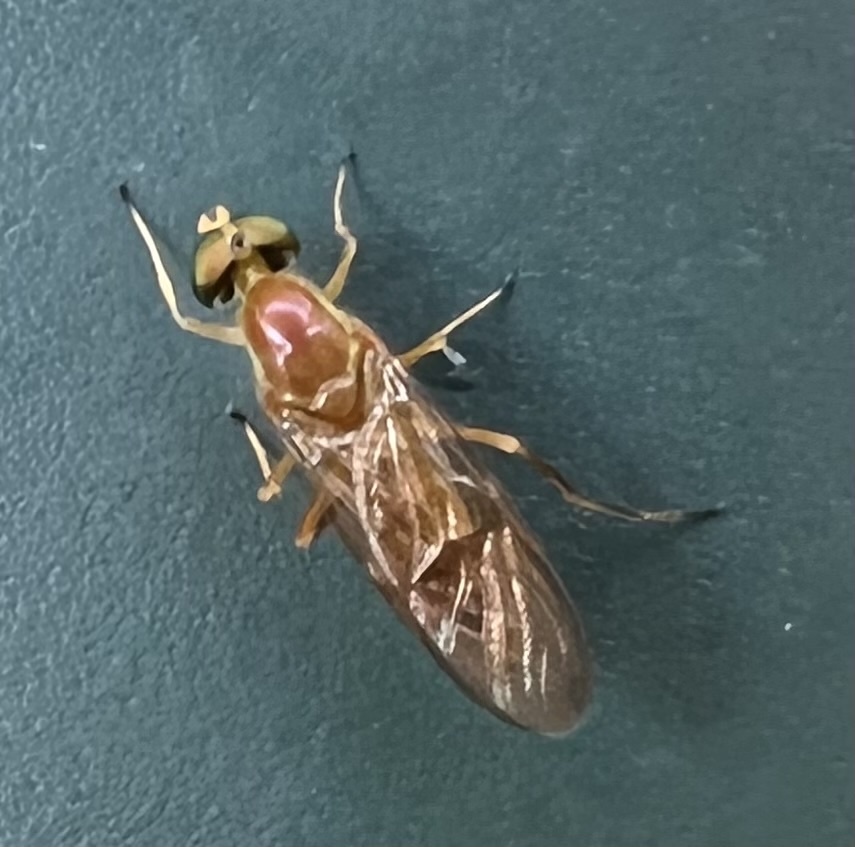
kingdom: Animalia
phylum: Arthropoda
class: Insecta
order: Diptera
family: Stratiomyidae
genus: Ptecticus
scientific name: Ptecticus trivittatus
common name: Compost fly
